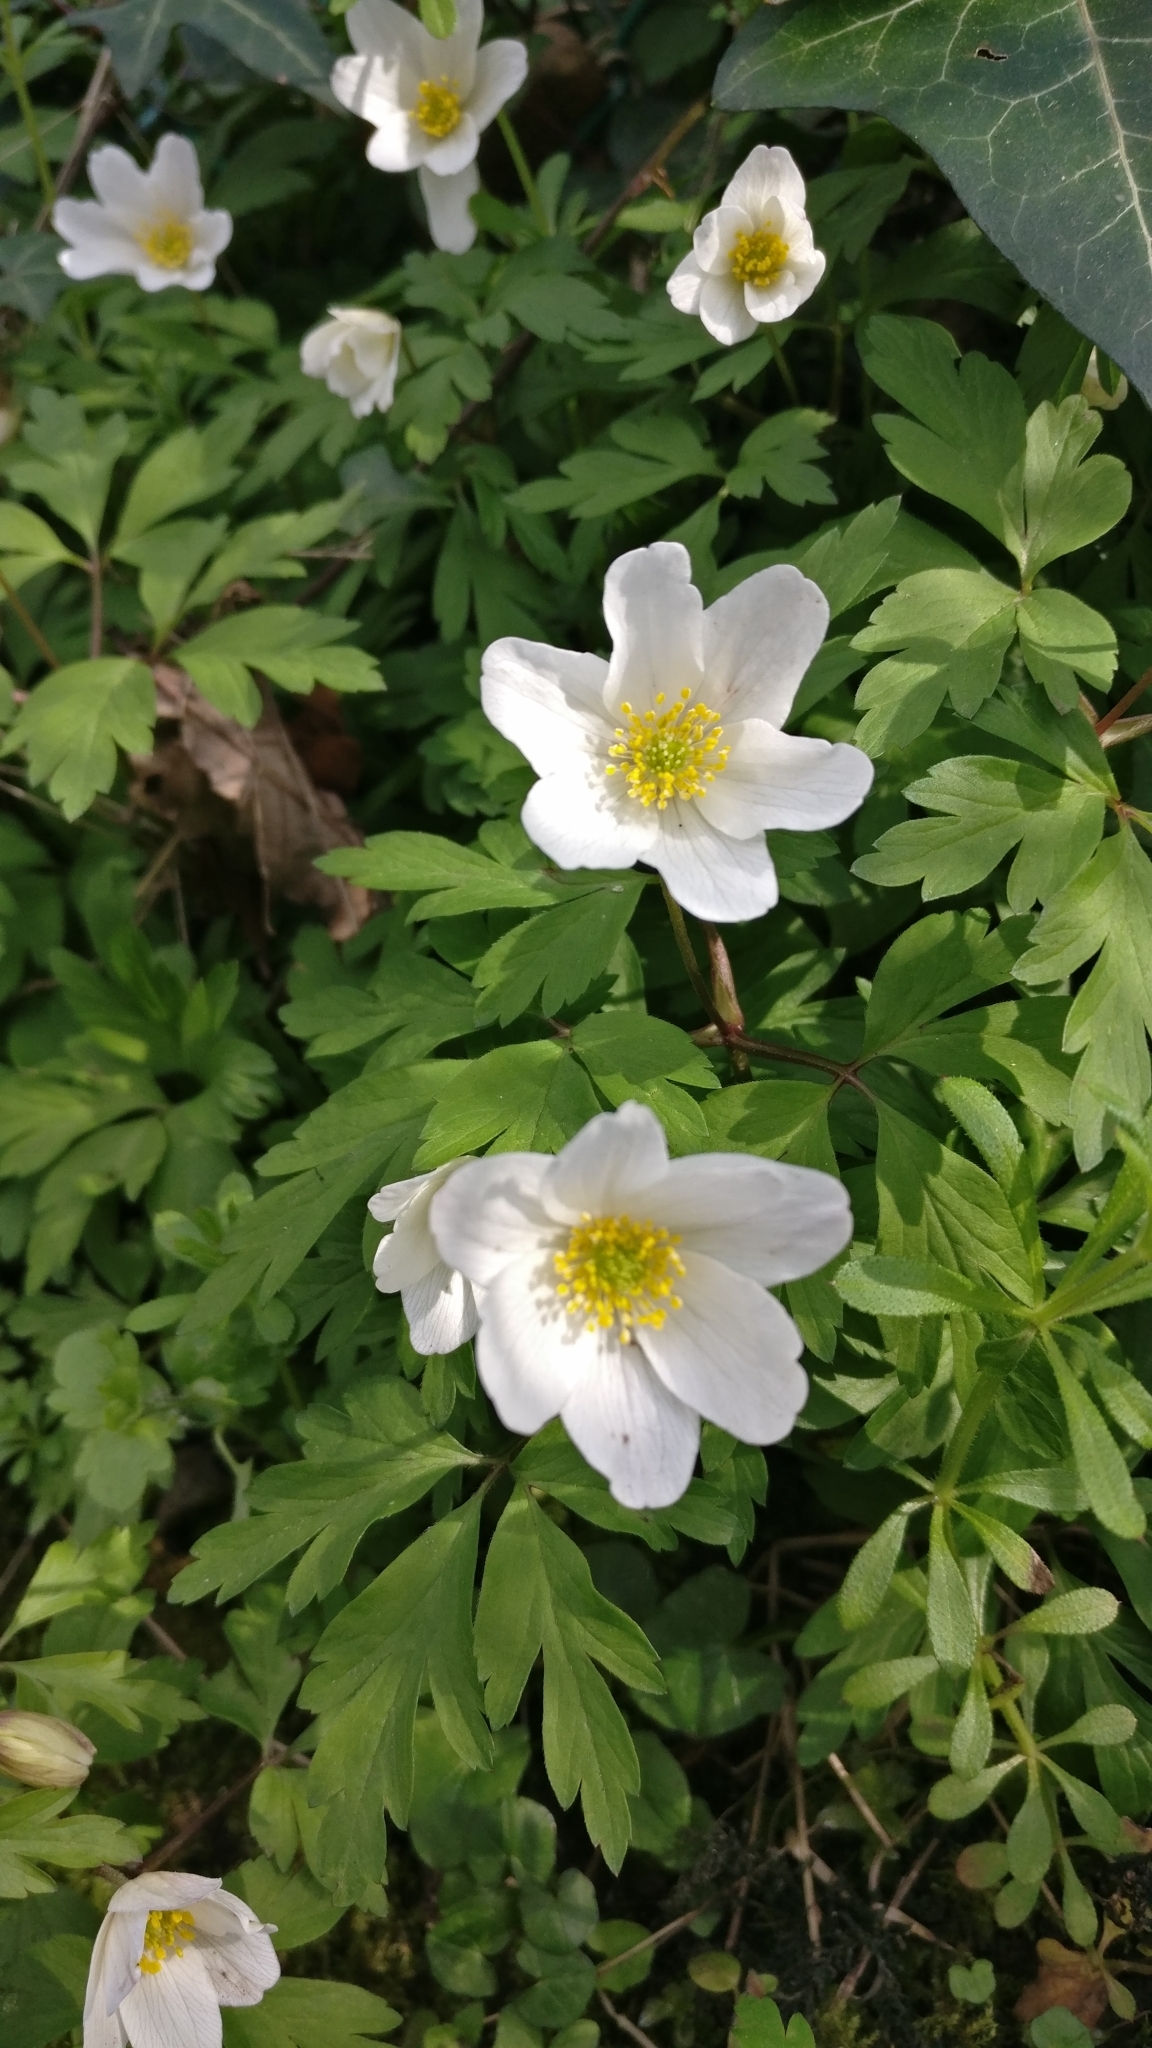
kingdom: Plantae
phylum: Tracheophyta
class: Magnoliopsida
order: Ranunculales
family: Ranunculaceae
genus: Anemone
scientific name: Anemone nemorosa
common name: Wood anemone
